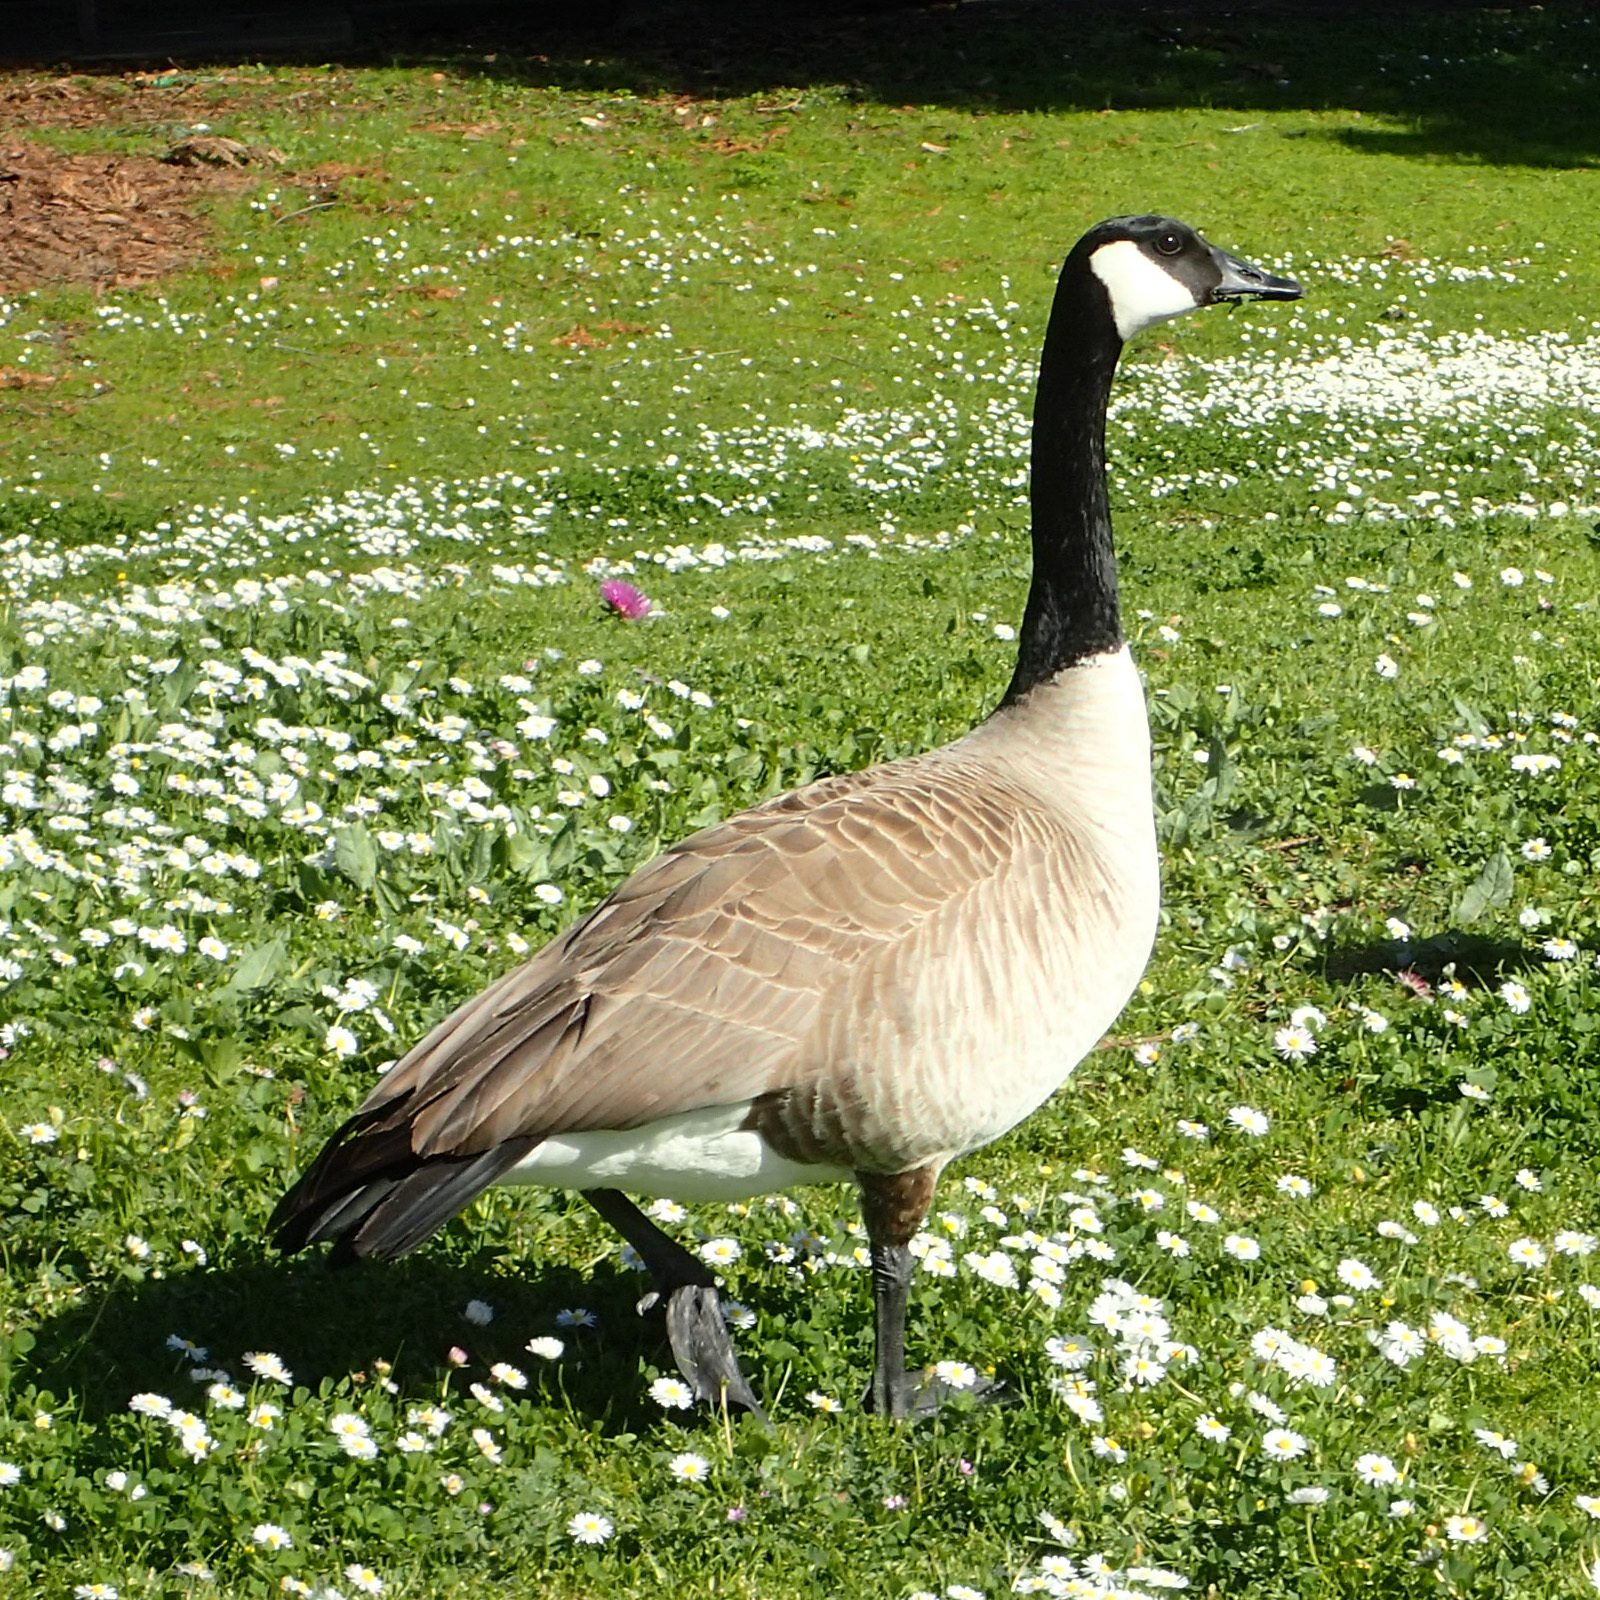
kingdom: Animalia
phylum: Chordata
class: Aves
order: Anseriformes
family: Anatidae
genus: Branta
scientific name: Branta canadensis
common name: Canada goose
